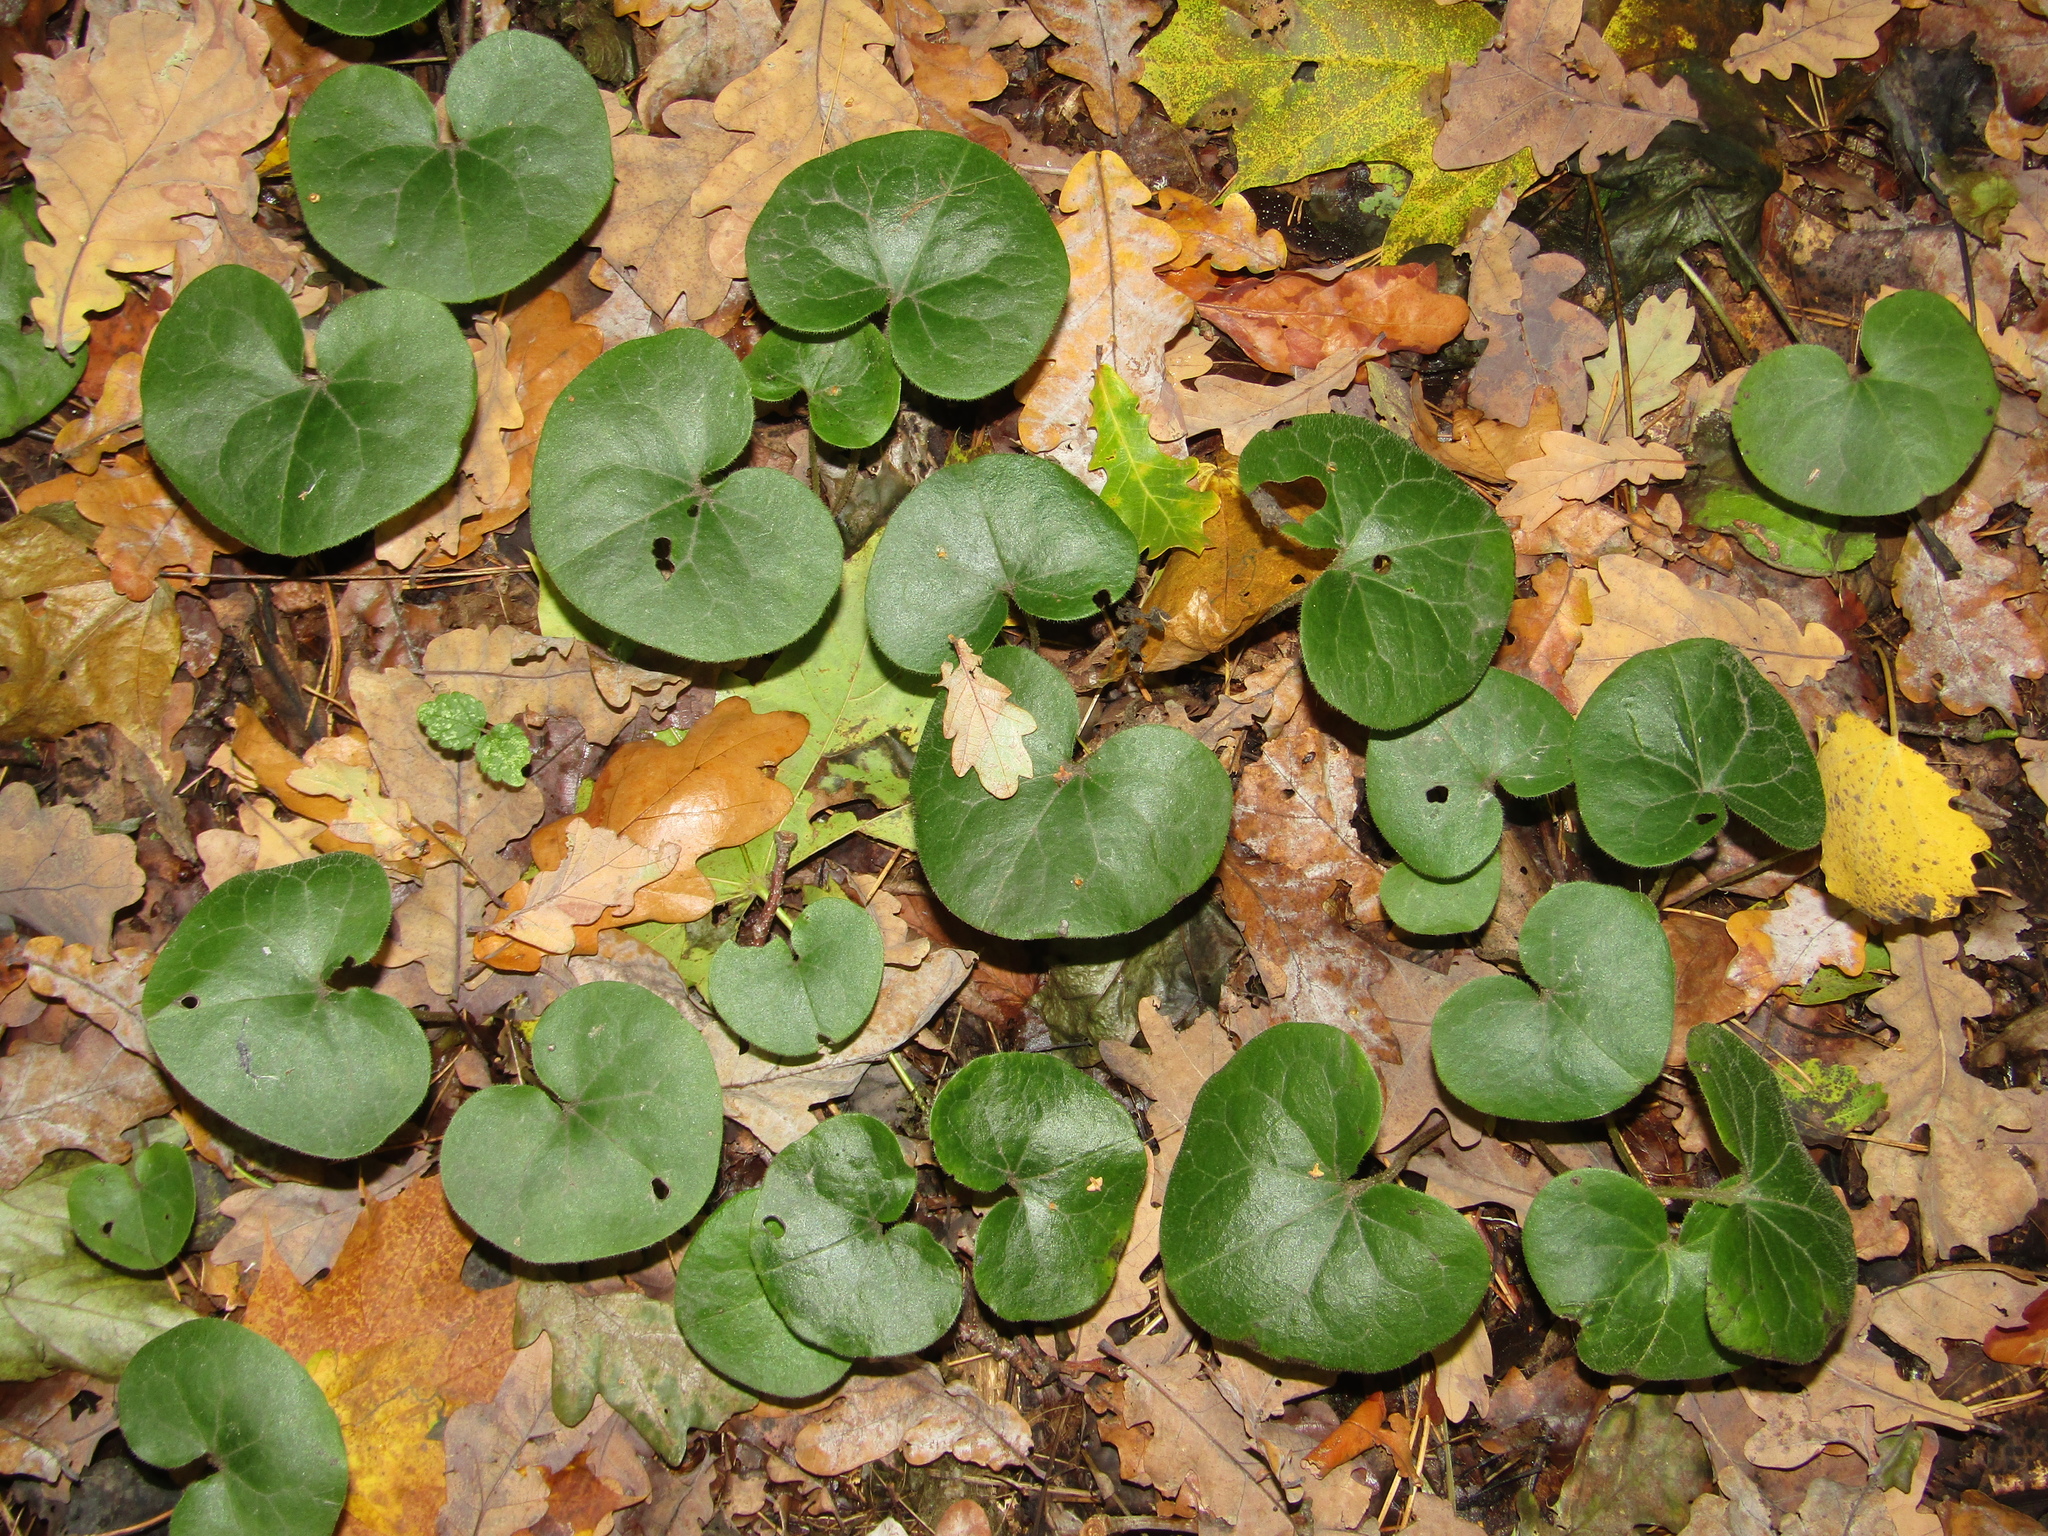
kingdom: Plantae
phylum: Tracheophyta
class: Magnoliopsida
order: Piperales
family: Aristolochiaceae
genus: Asarum
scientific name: Asarum europaeum
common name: Asarabacca
